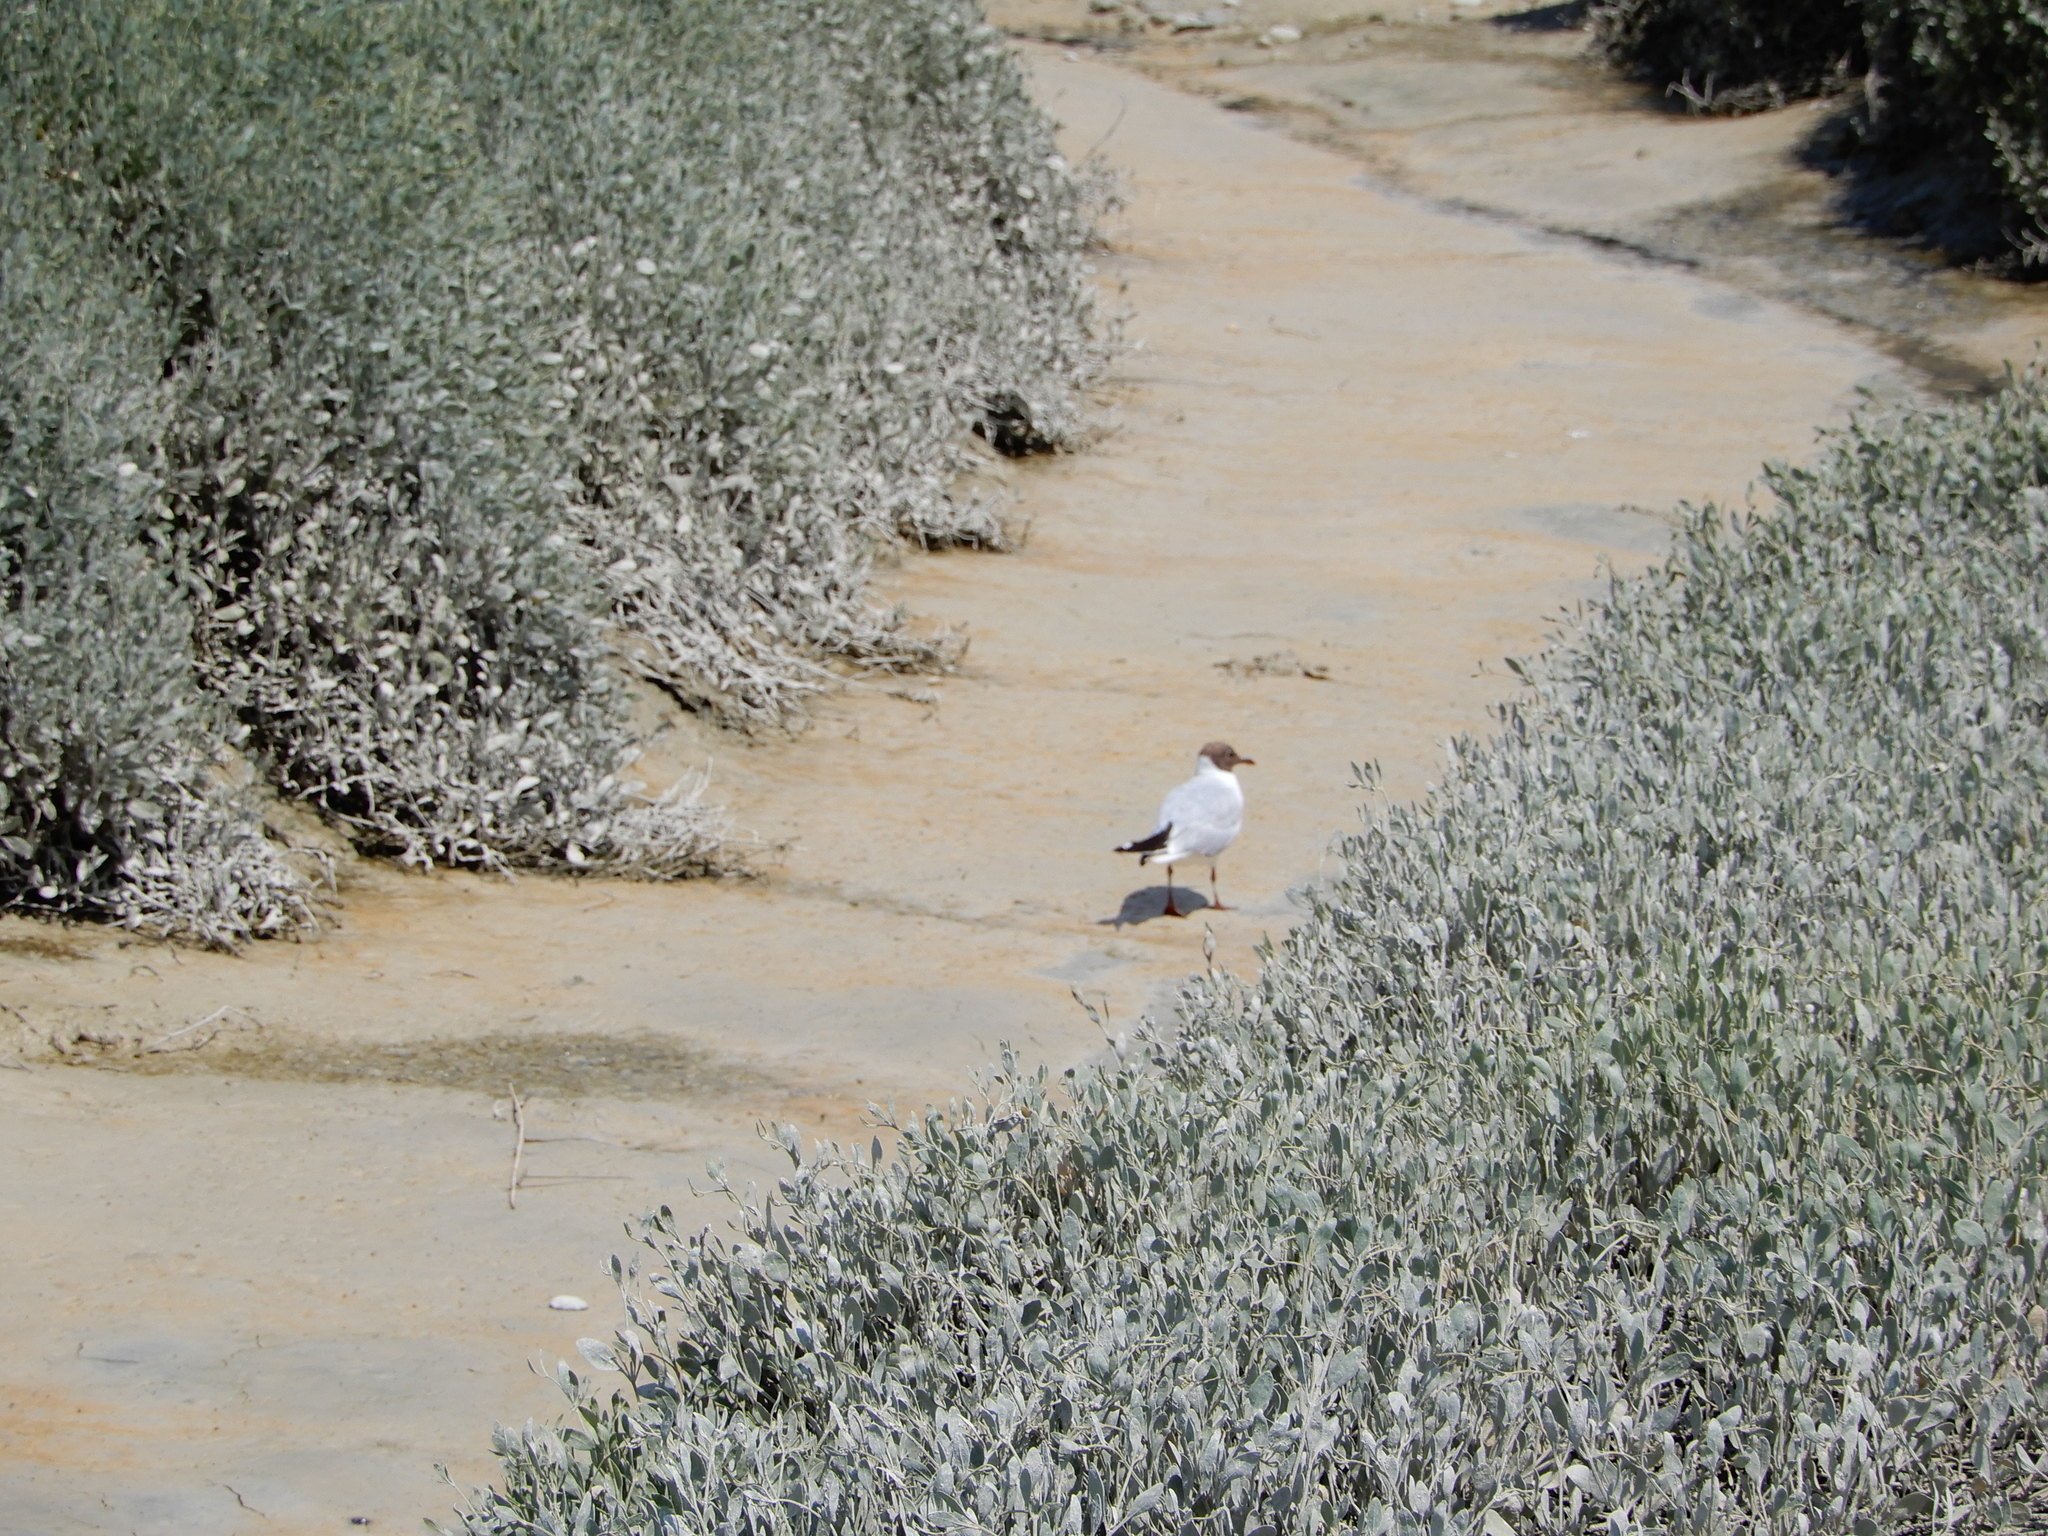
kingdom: Animalia
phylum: Chordata
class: Aves
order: Charadriiformes
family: Laridae
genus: Chroicocephalus
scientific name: Chroicocephalus ridibundus
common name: Black-headed gull
